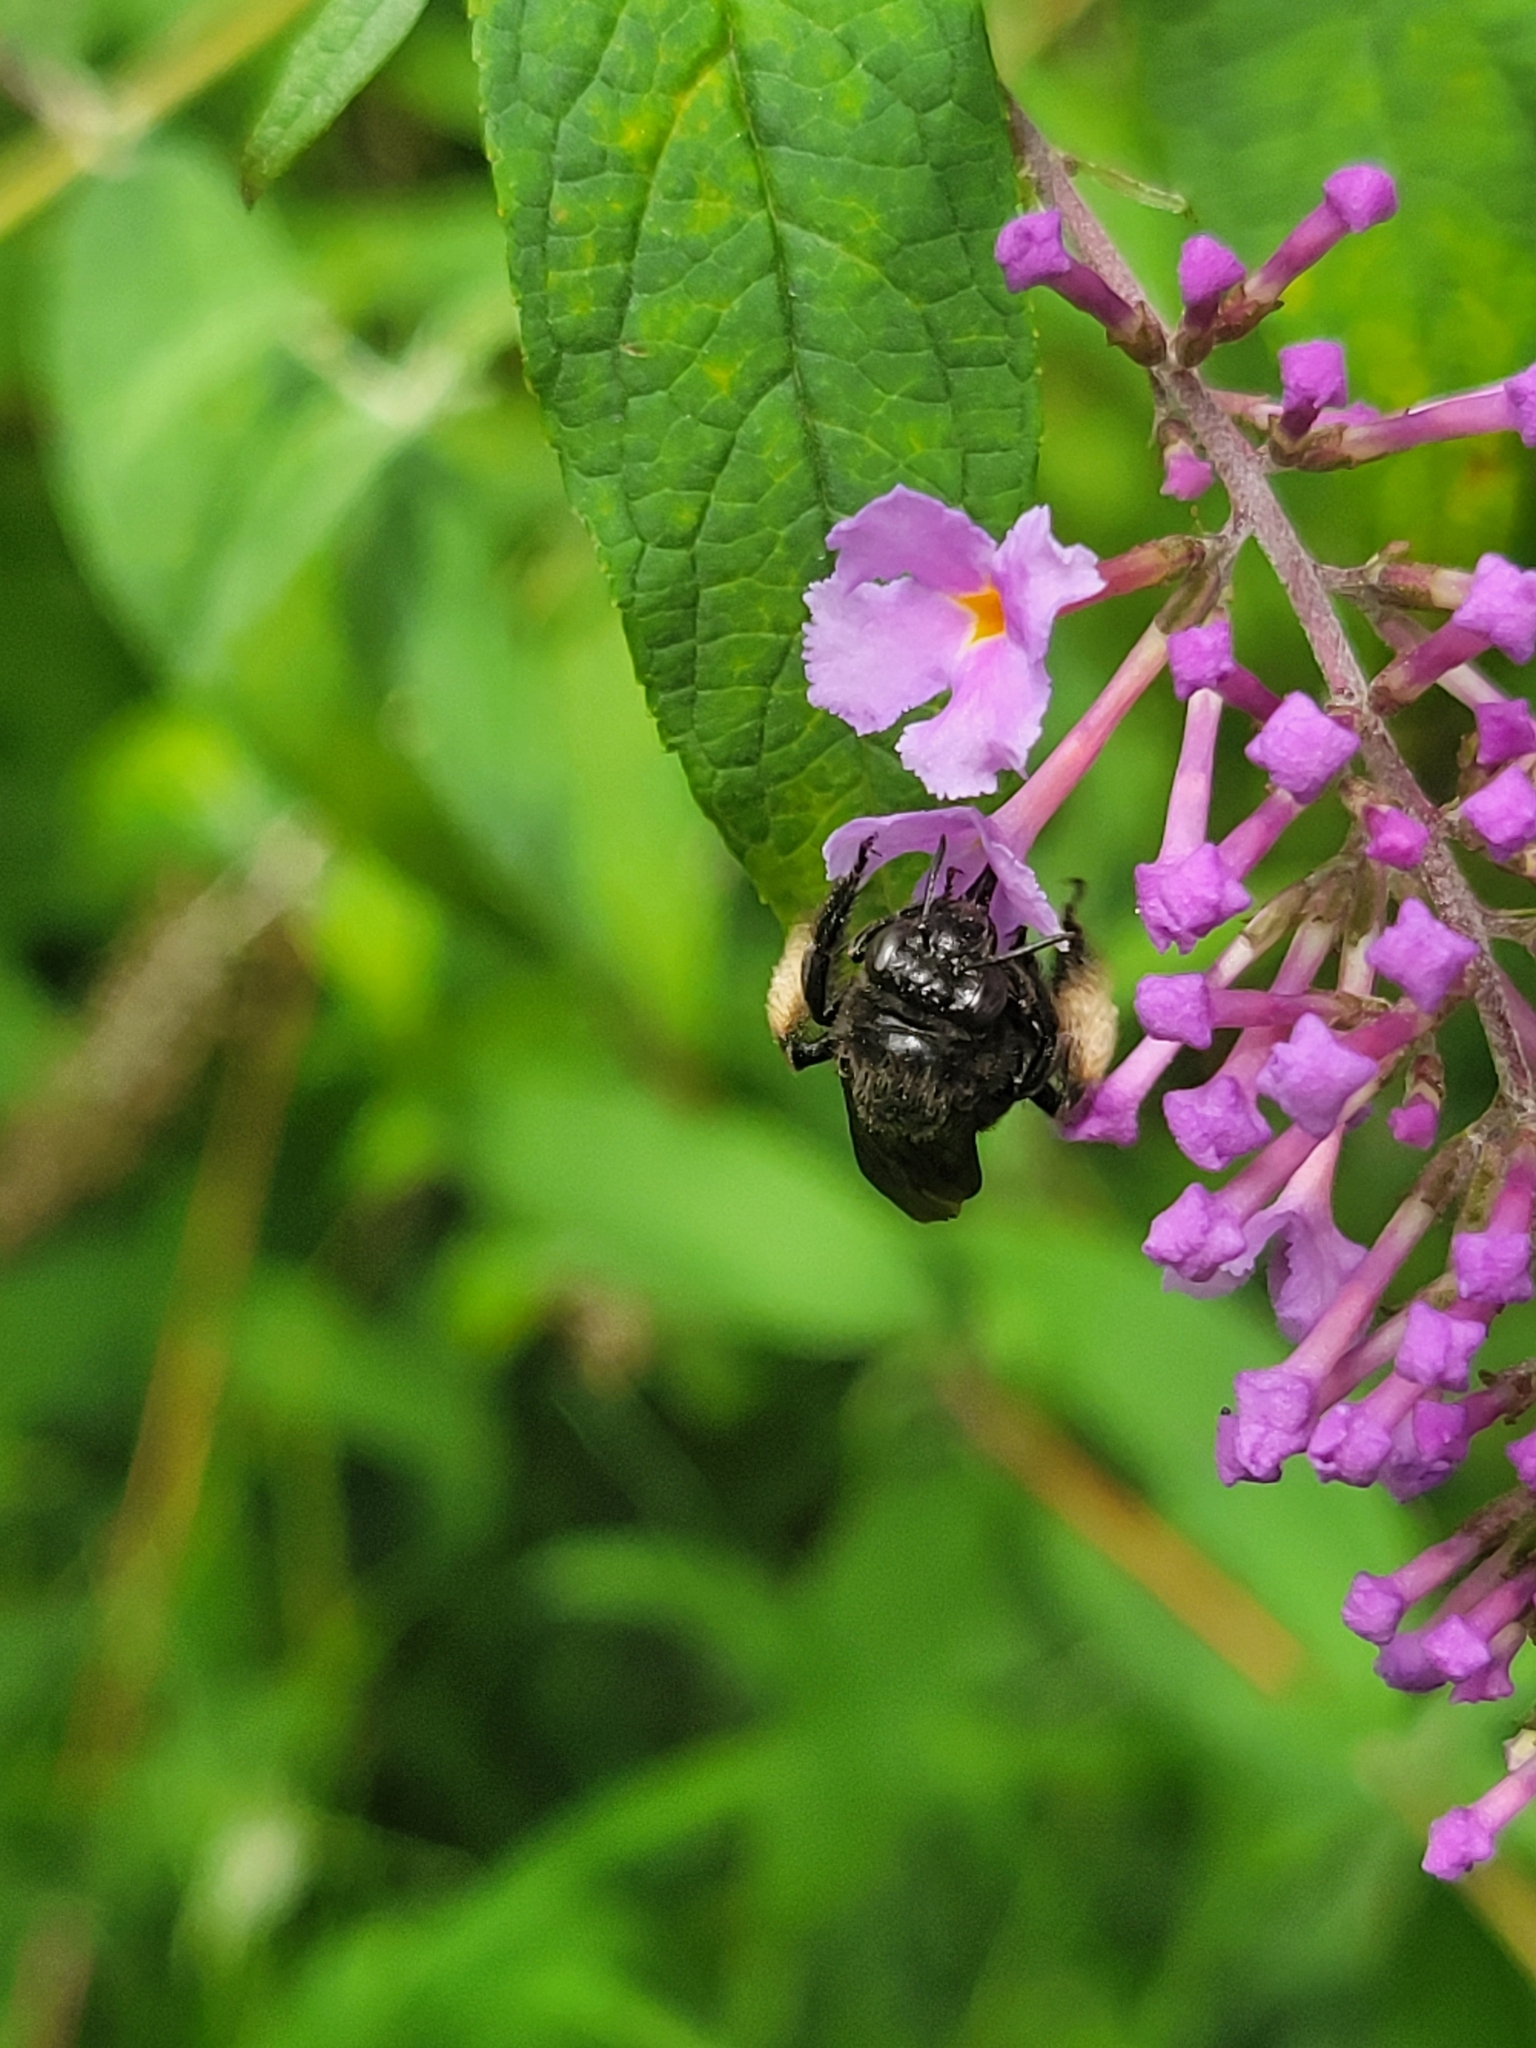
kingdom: Animalia
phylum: Arthropoda
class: Insecta
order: Hymenoptera
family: Apidae
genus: Melissodes
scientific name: Melissodes bimaculatus
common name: Two-spotted long-horned bee
